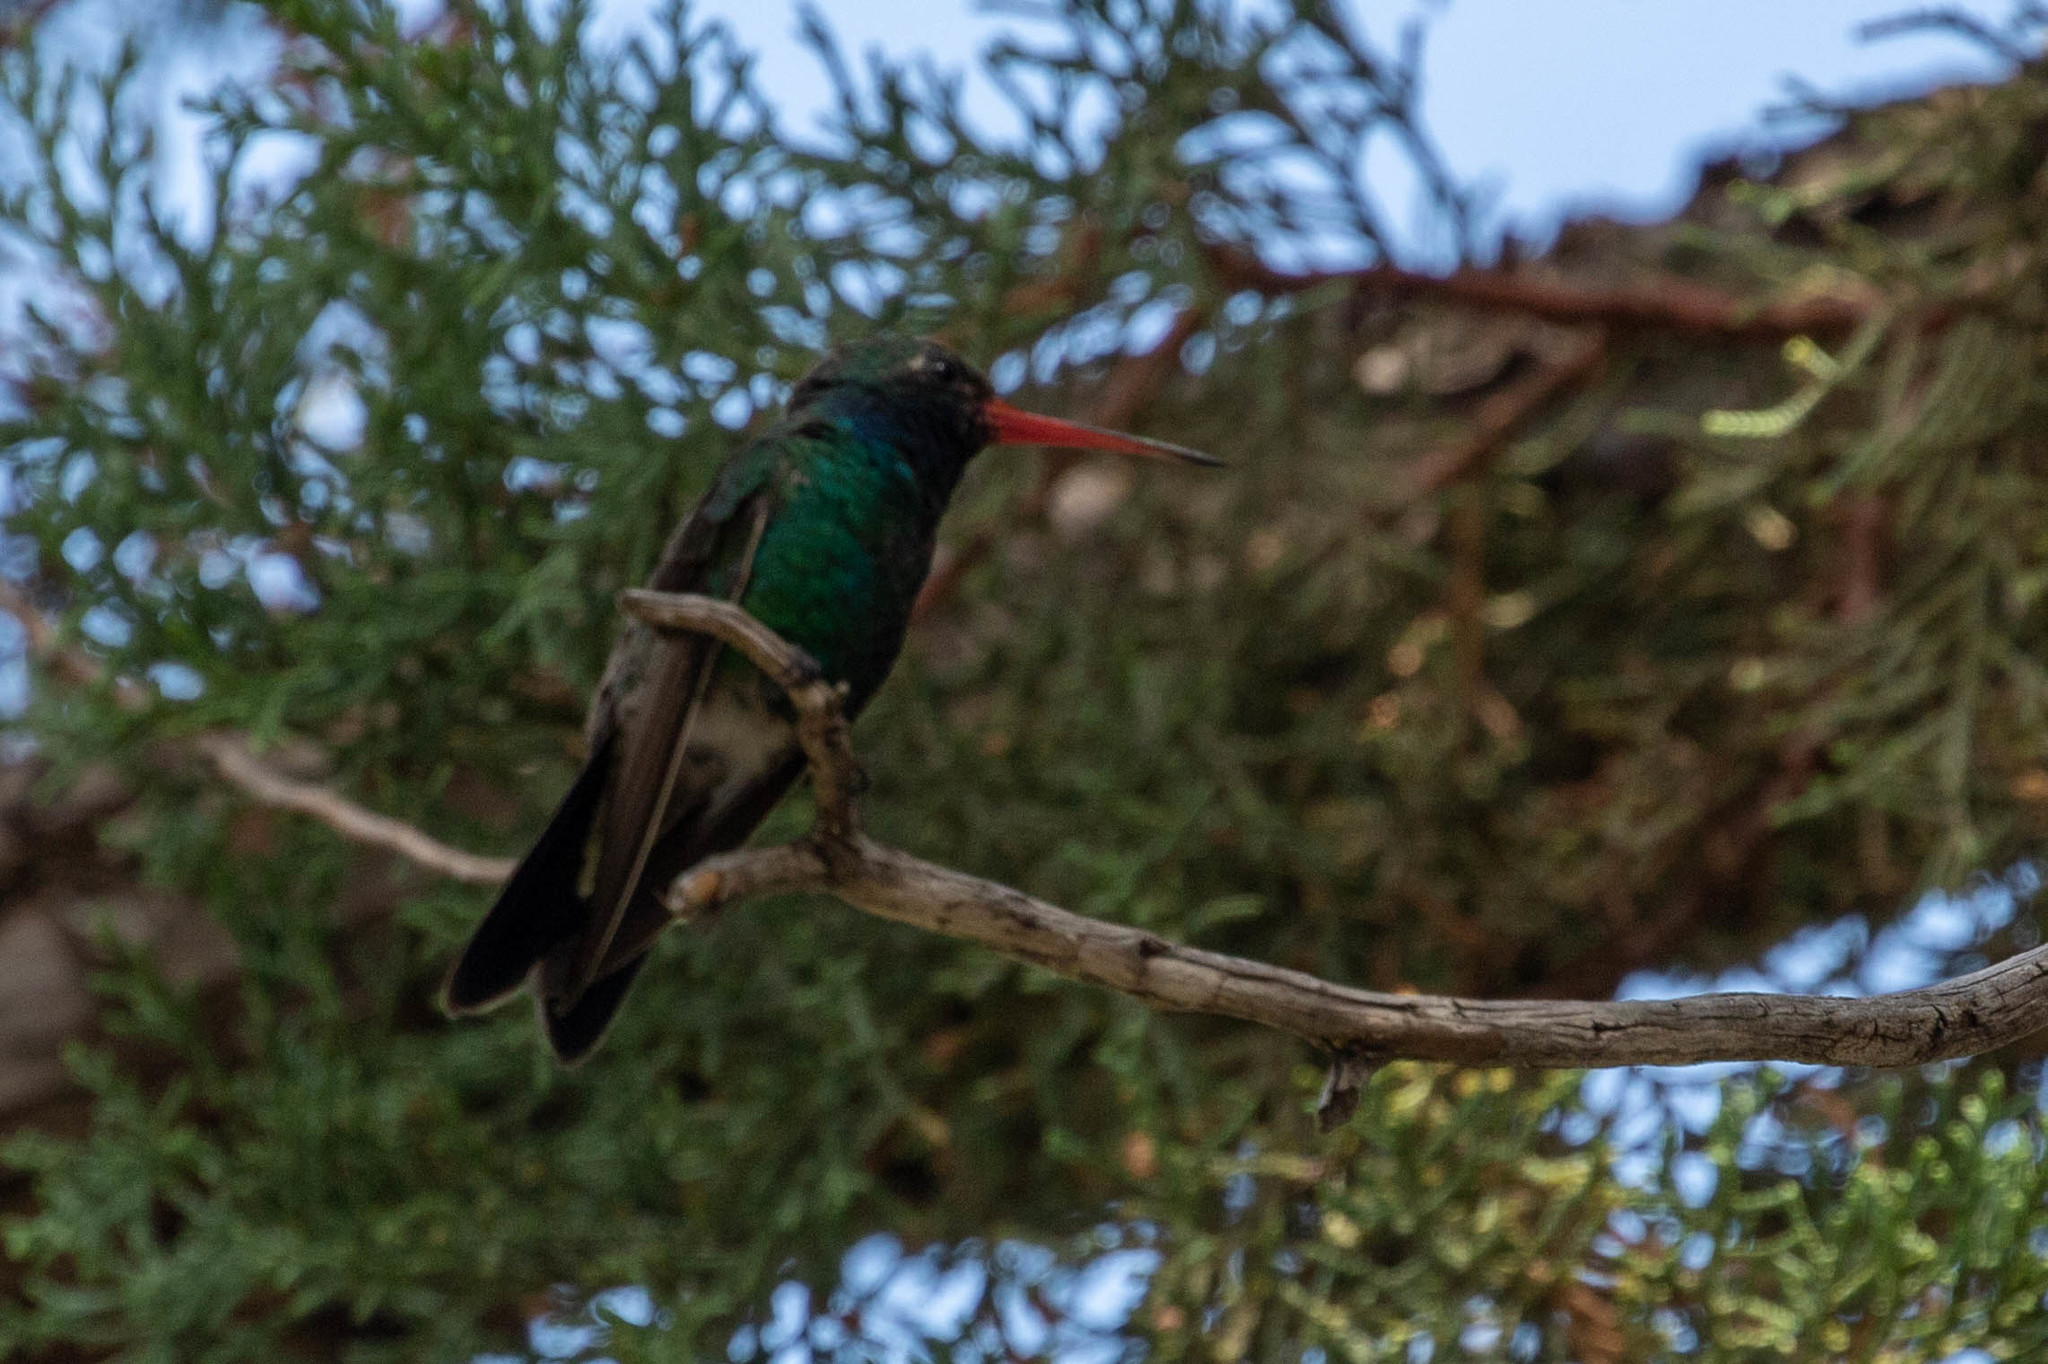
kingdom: Animalia
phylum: Chordata
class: Aves
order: Apodiformes
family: Trochilidae
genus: Cynanthus
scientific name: Cynanthus latirostris
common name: Broad-billed hummingbird
